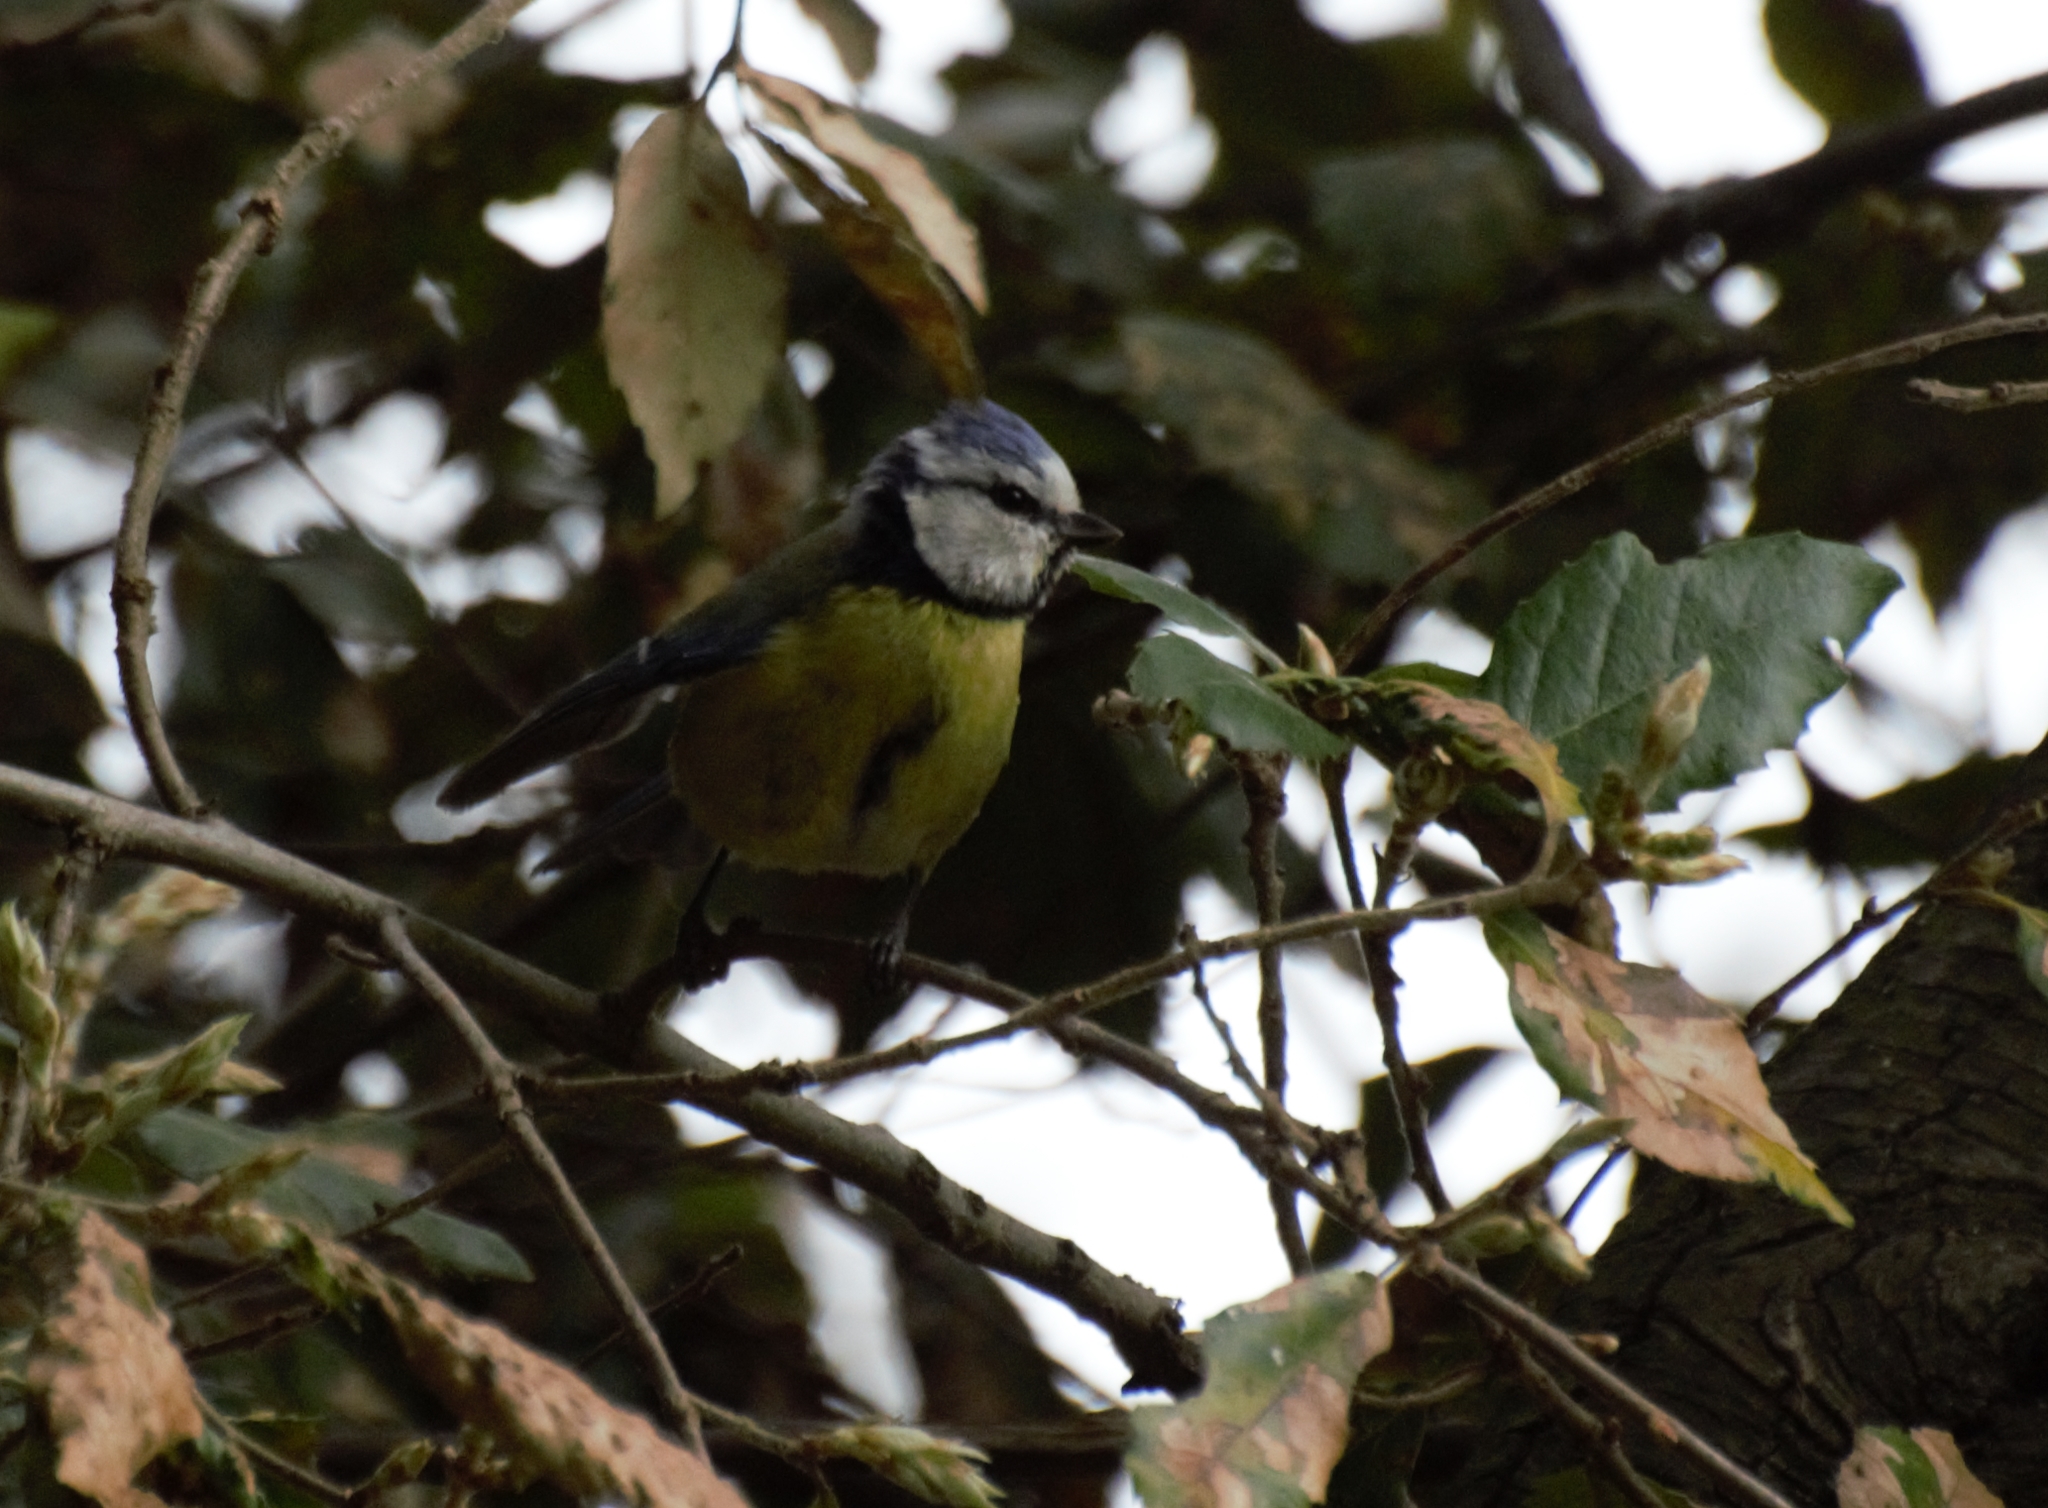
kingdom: Animalia
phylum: Chordata
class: Aves
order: Passeriformes
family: Paridae
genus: Cyanistes
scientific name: Cyanistes caeruleus
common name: Eurasian blue tit
